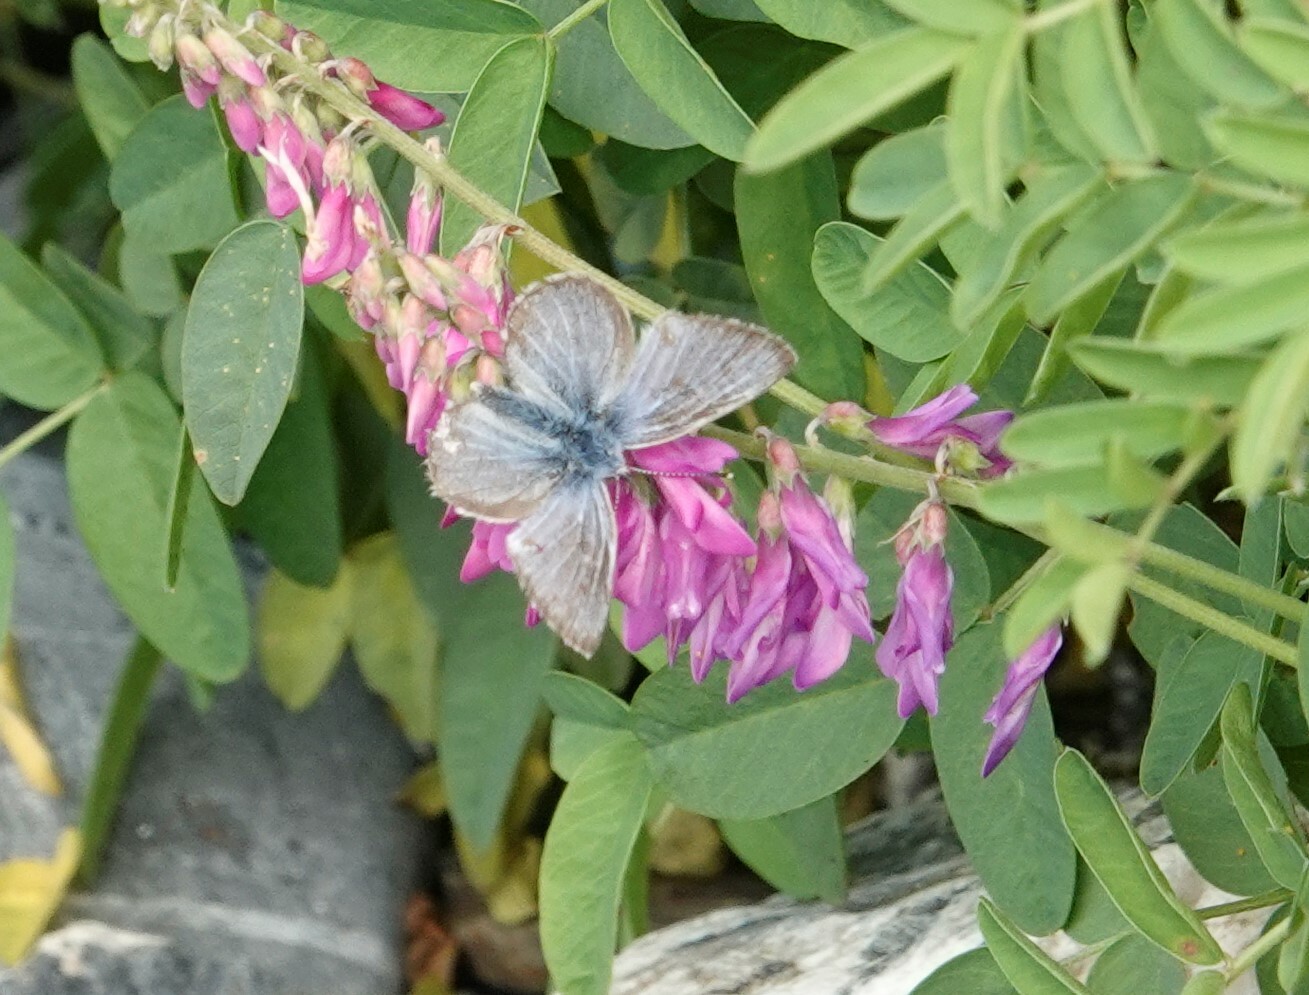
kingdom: Animalia
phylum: Arthropoda
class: Insecta
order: Lepidoptera
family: Lycaenidae
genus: Glaucopsyche
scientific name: Glaucopsyche lygdamus
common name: Silvery blue
